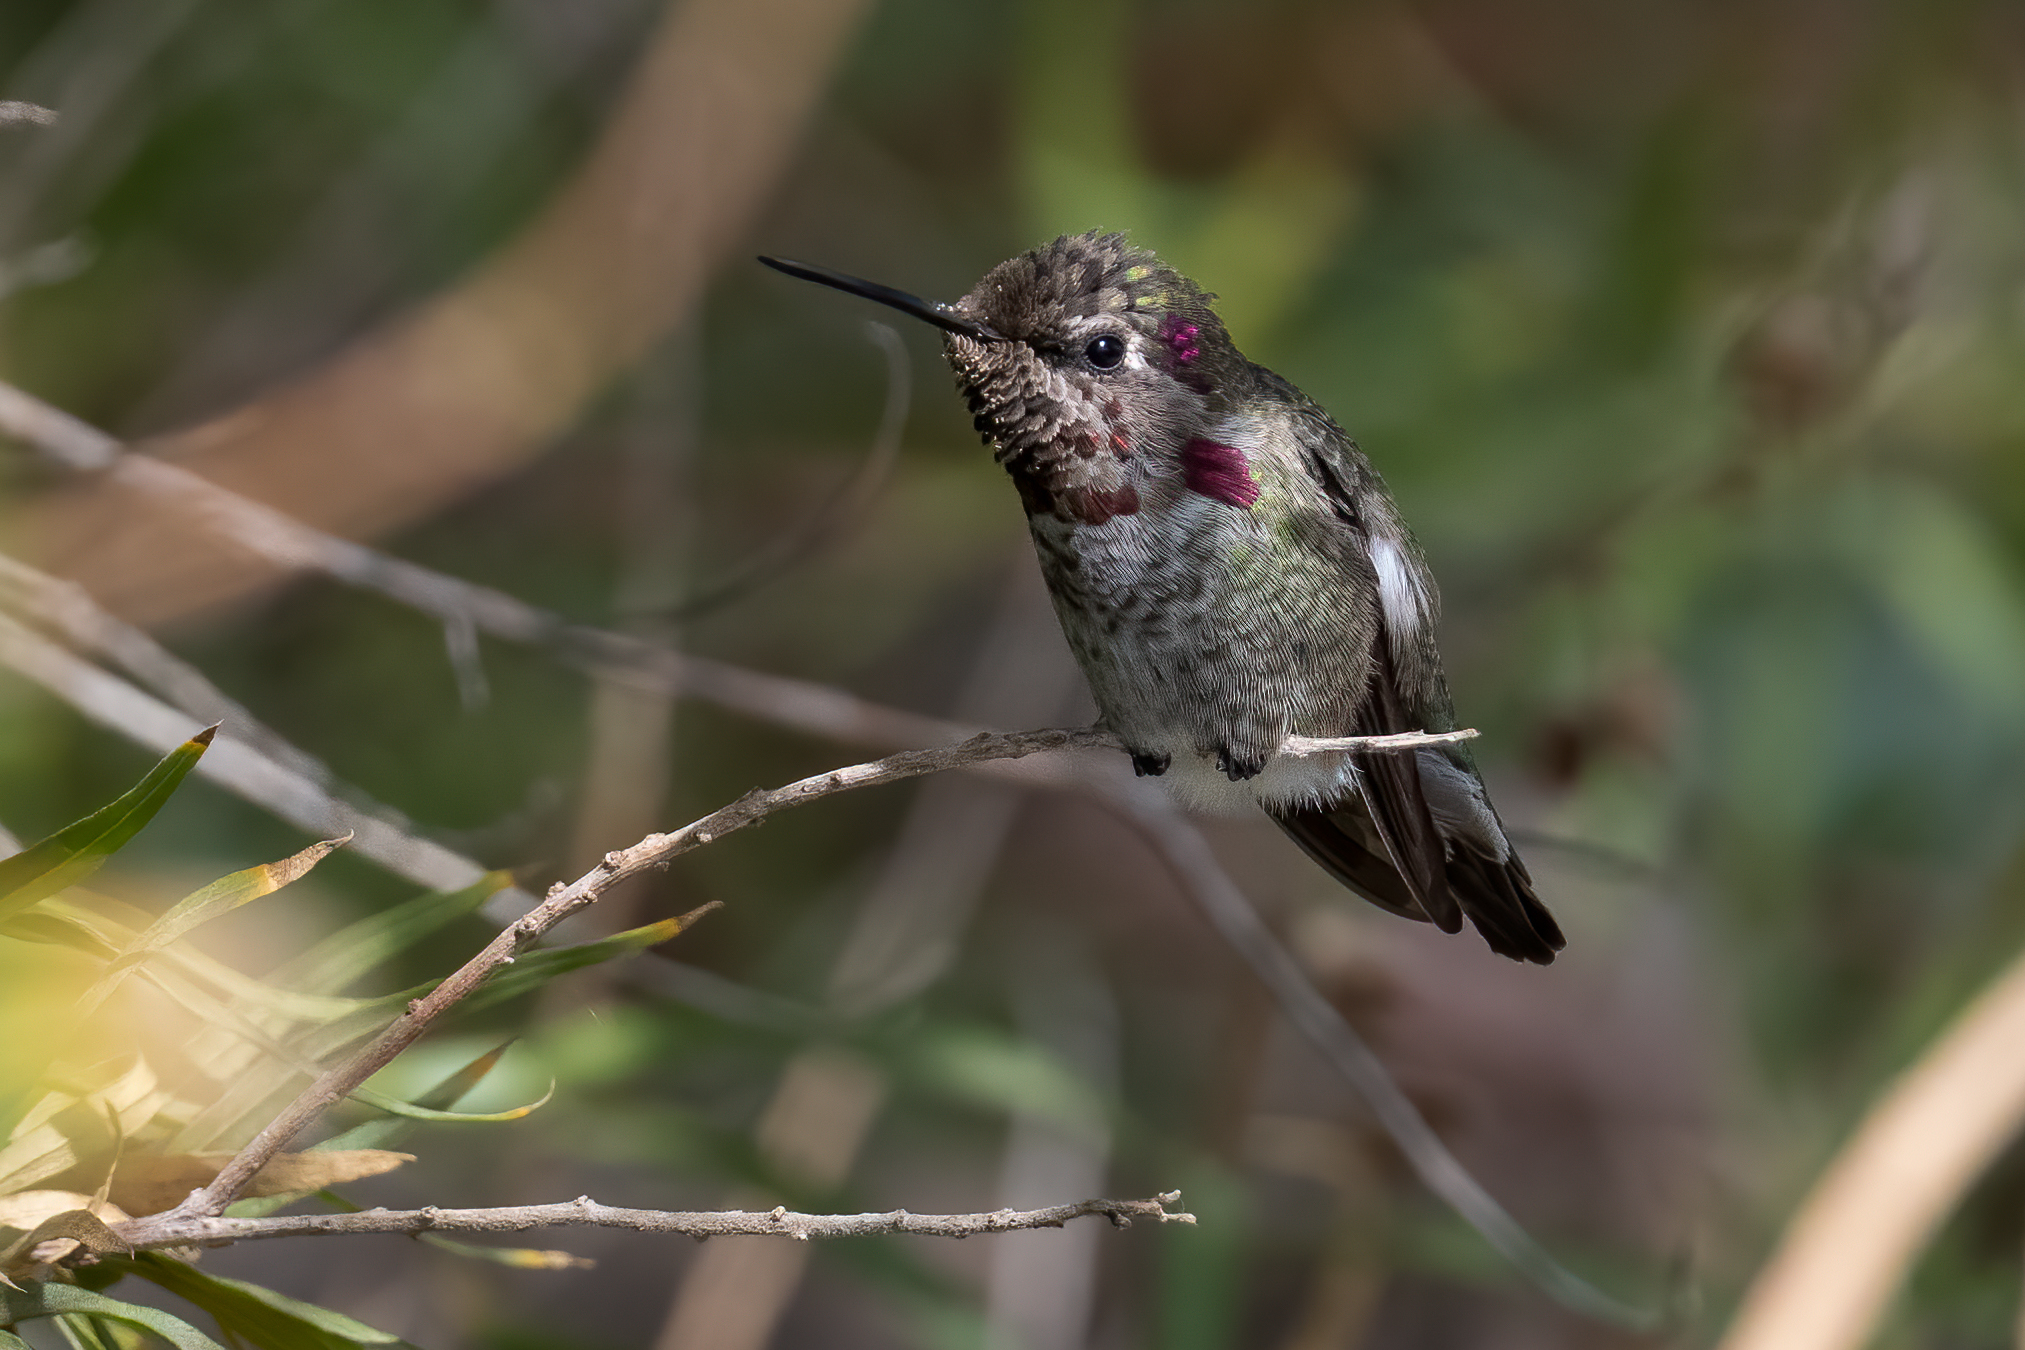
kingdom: Animalia
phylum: Chordata
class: Aves
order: Apodiformes
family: Trochilidae
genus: Calypte
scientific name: Calypte anna
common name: Anna's hummingbird
